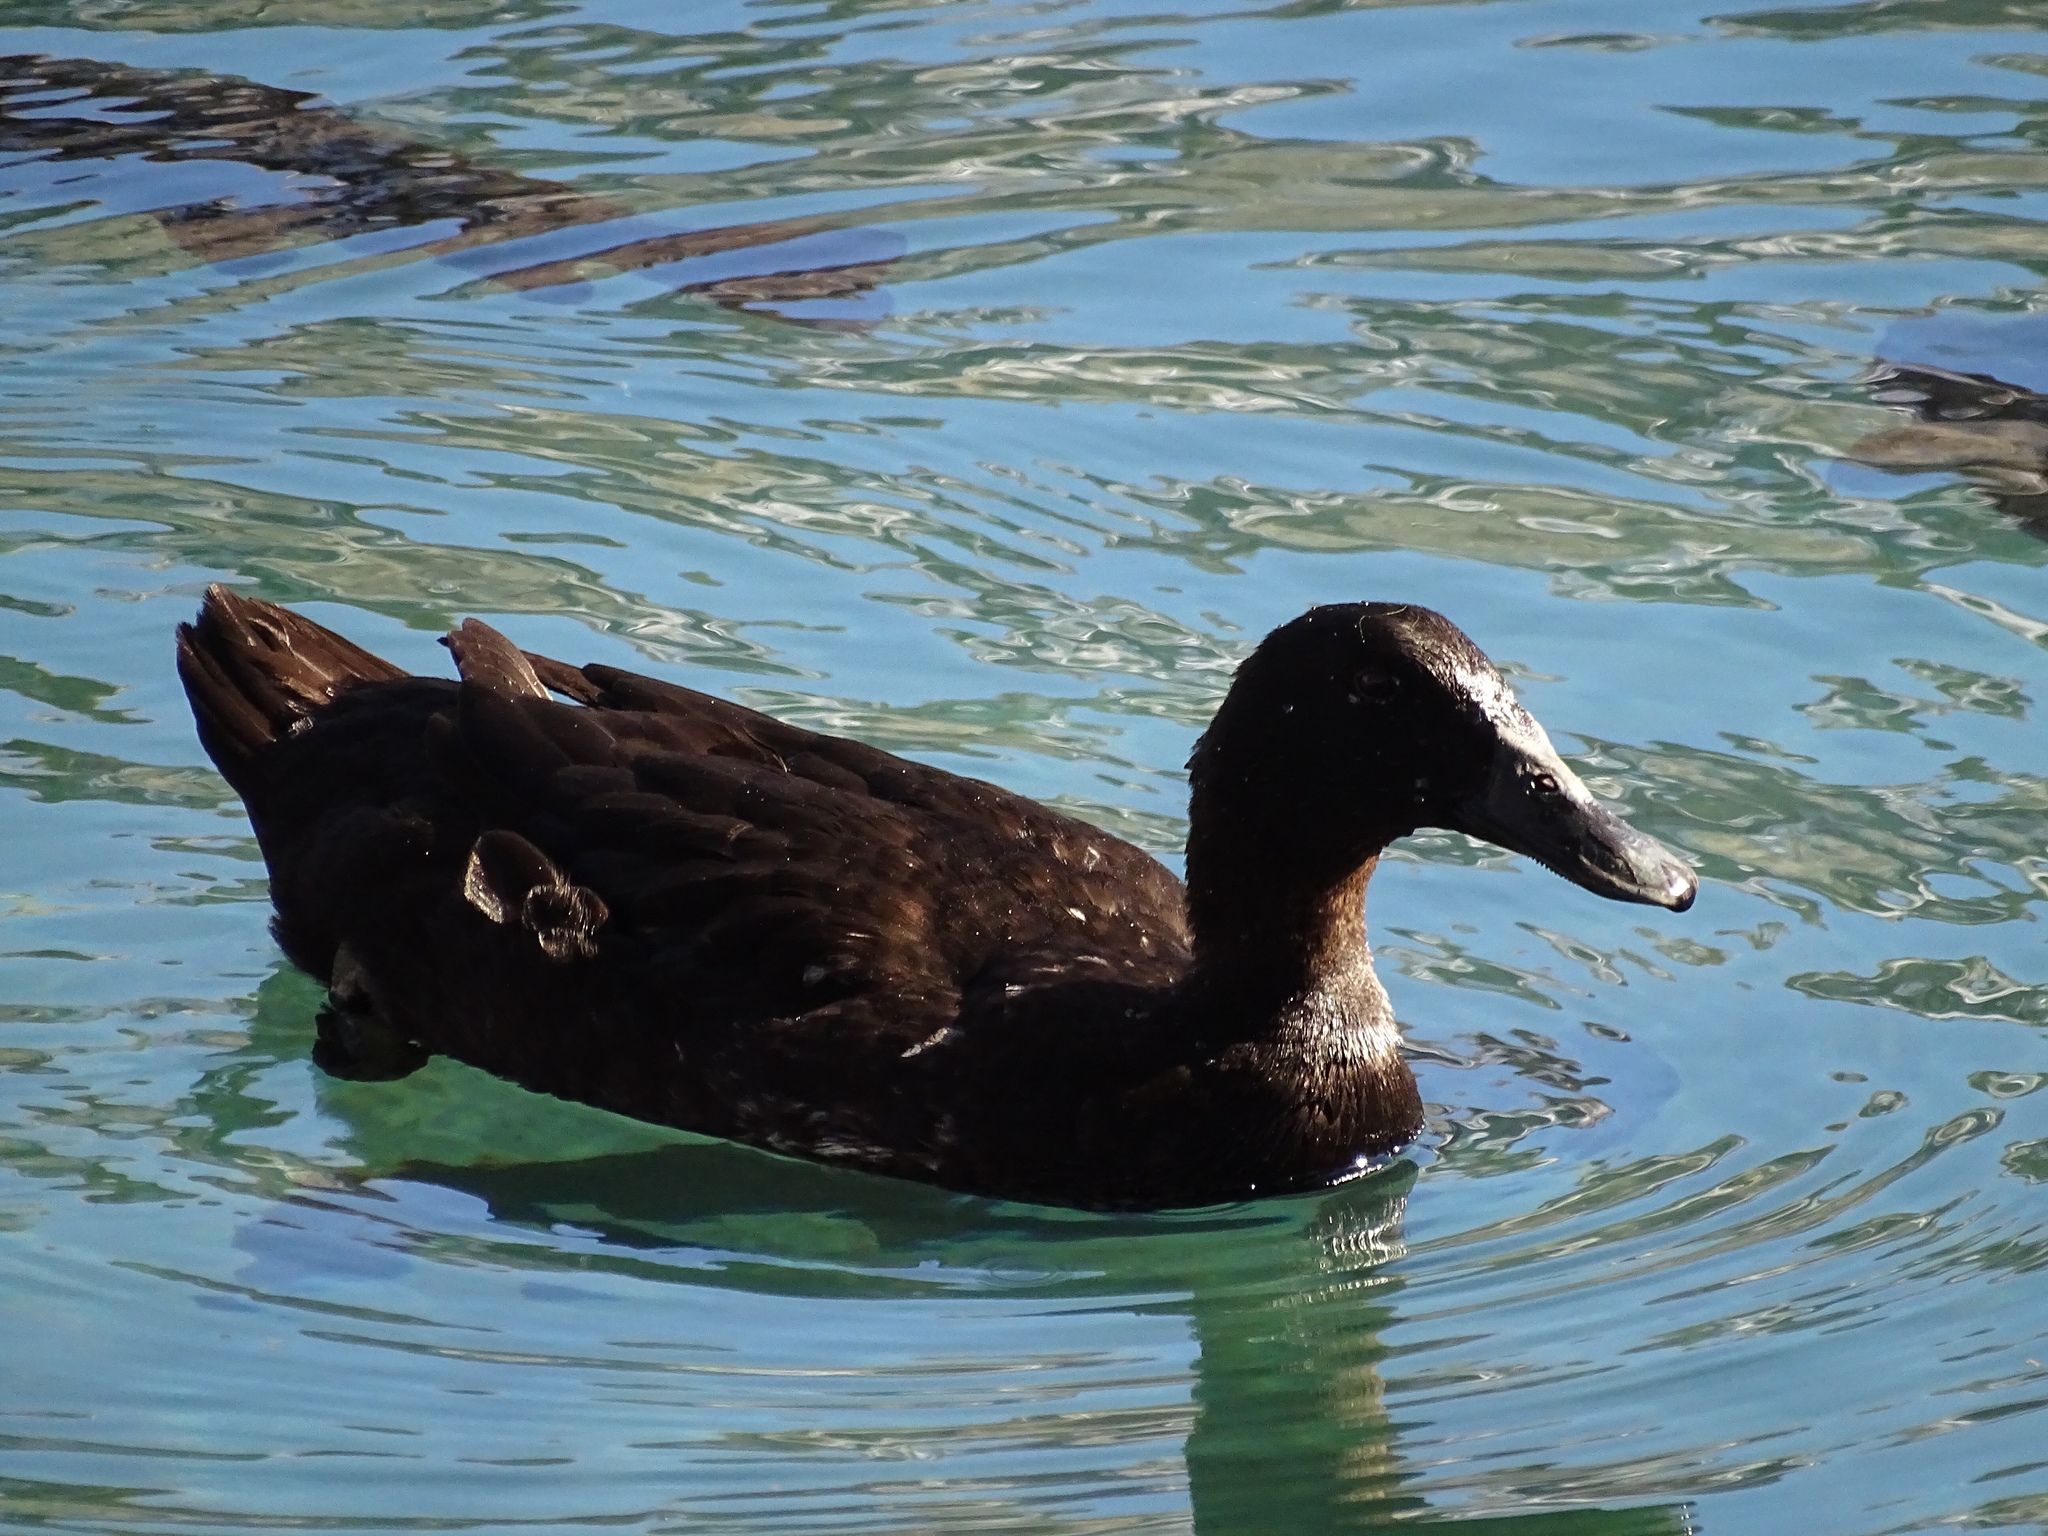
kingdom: Animalia
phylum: Chordata
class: Aves
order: Anseriformes
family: Anatidae
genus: Anas
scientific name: Anas platyrhynchos
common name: Mallard
